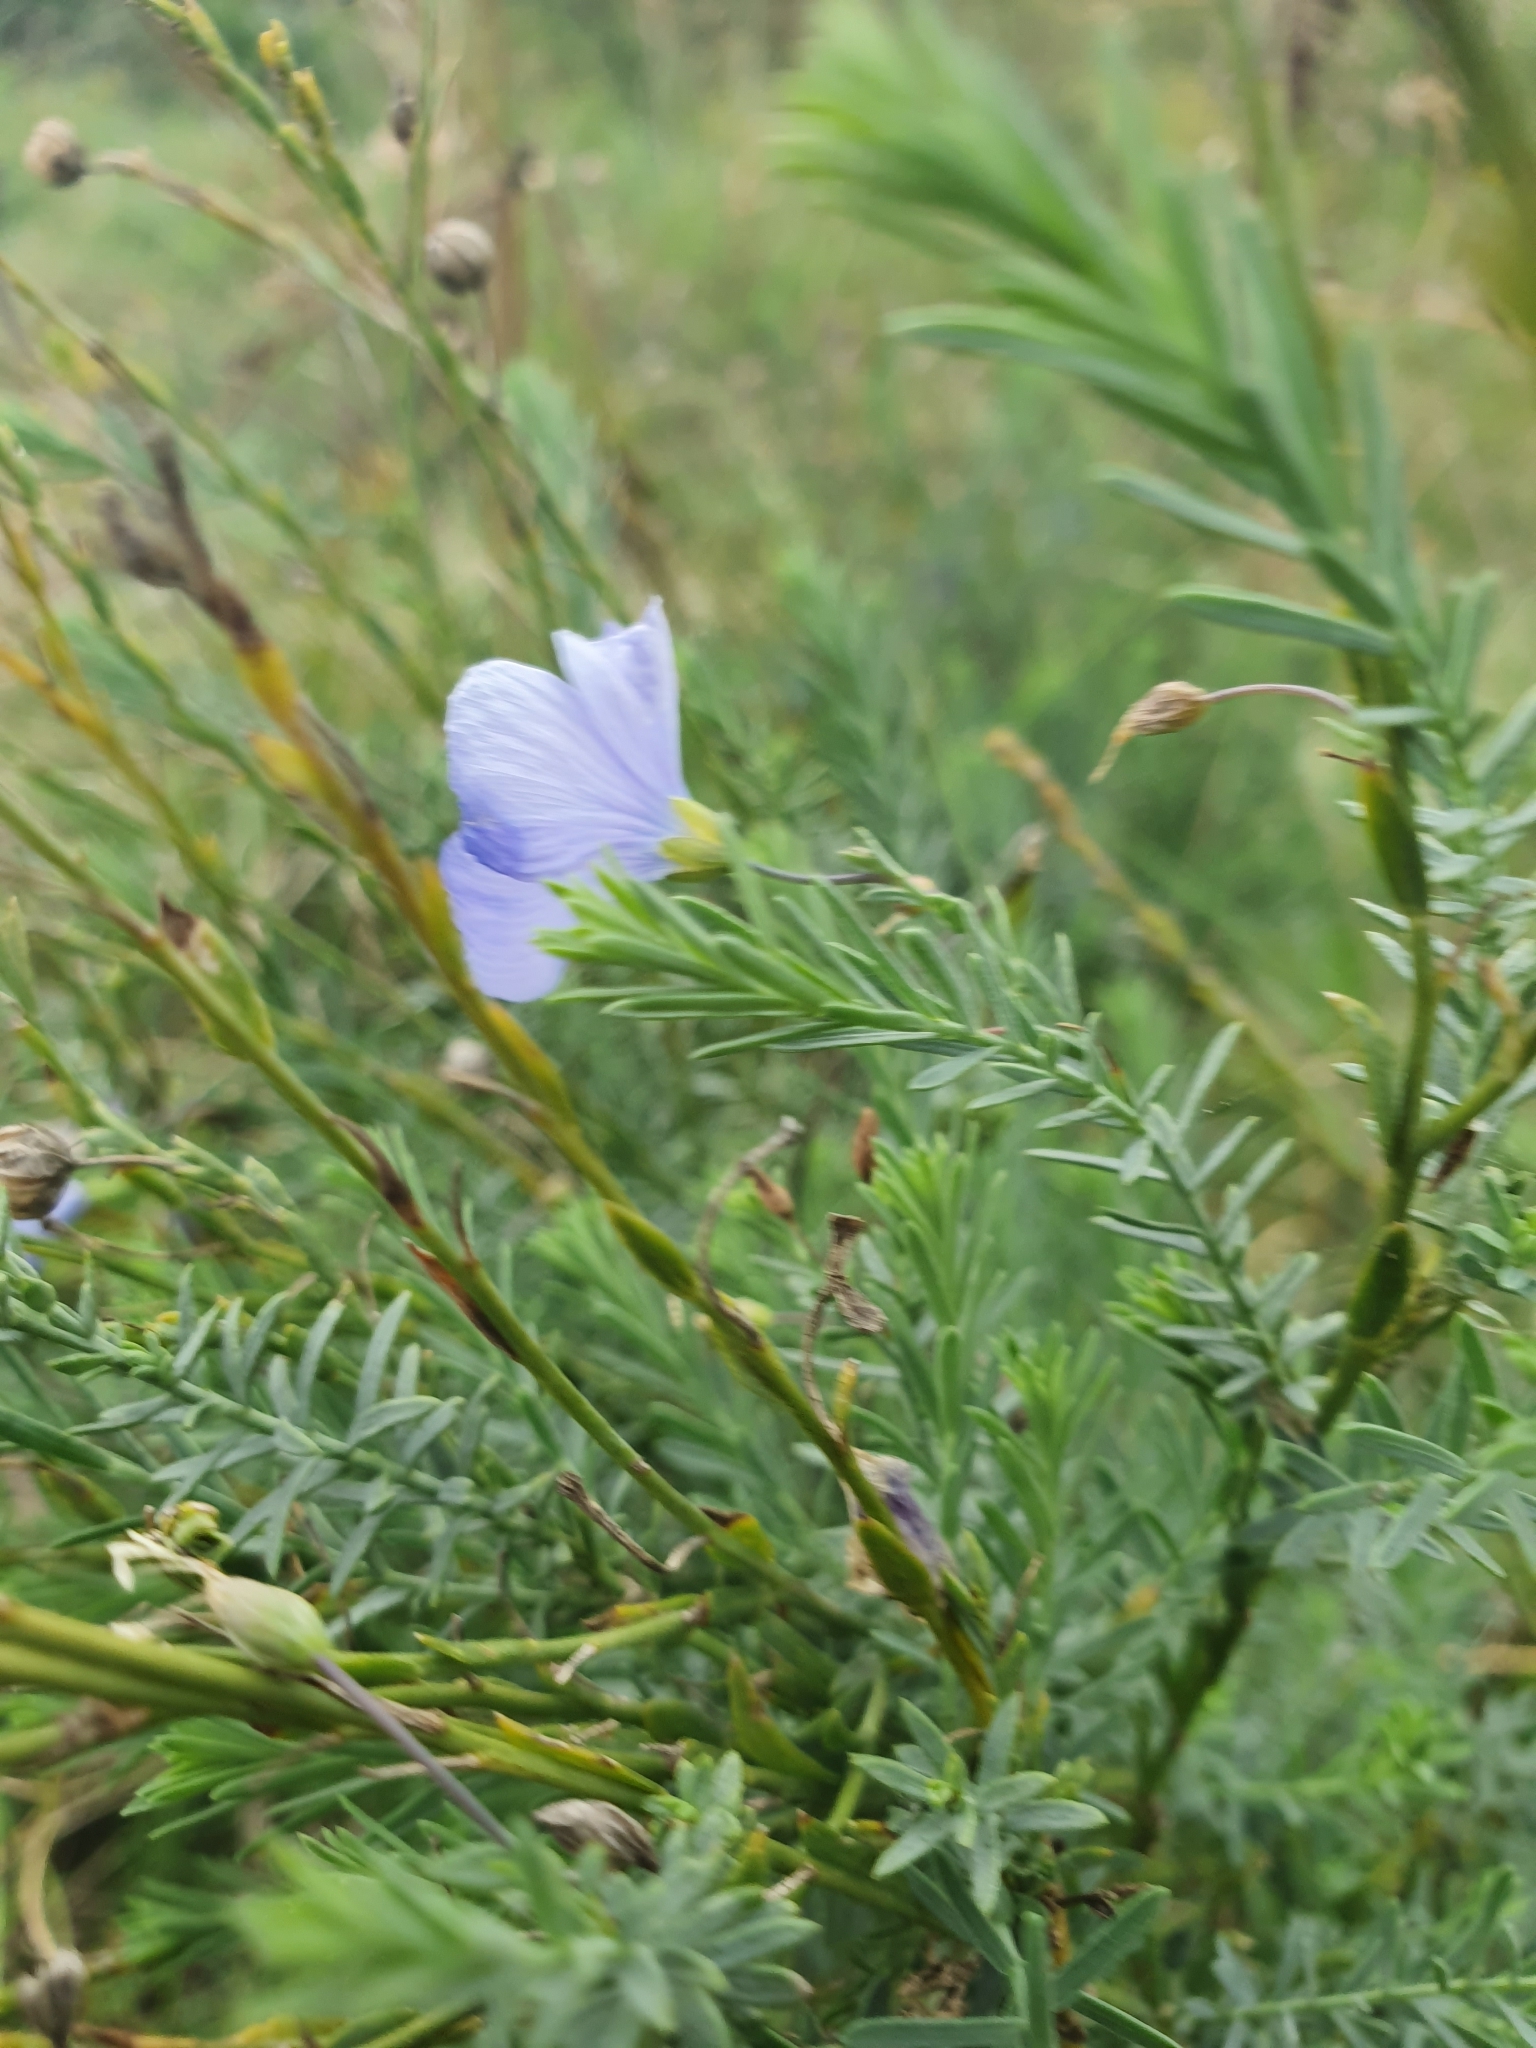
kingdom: Plantae
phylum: Tracheophyta
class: Magnoliopsida
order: Malpighiales
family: Linaceae
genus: Linum
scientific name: Linum austriacum
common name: Austrian flax
